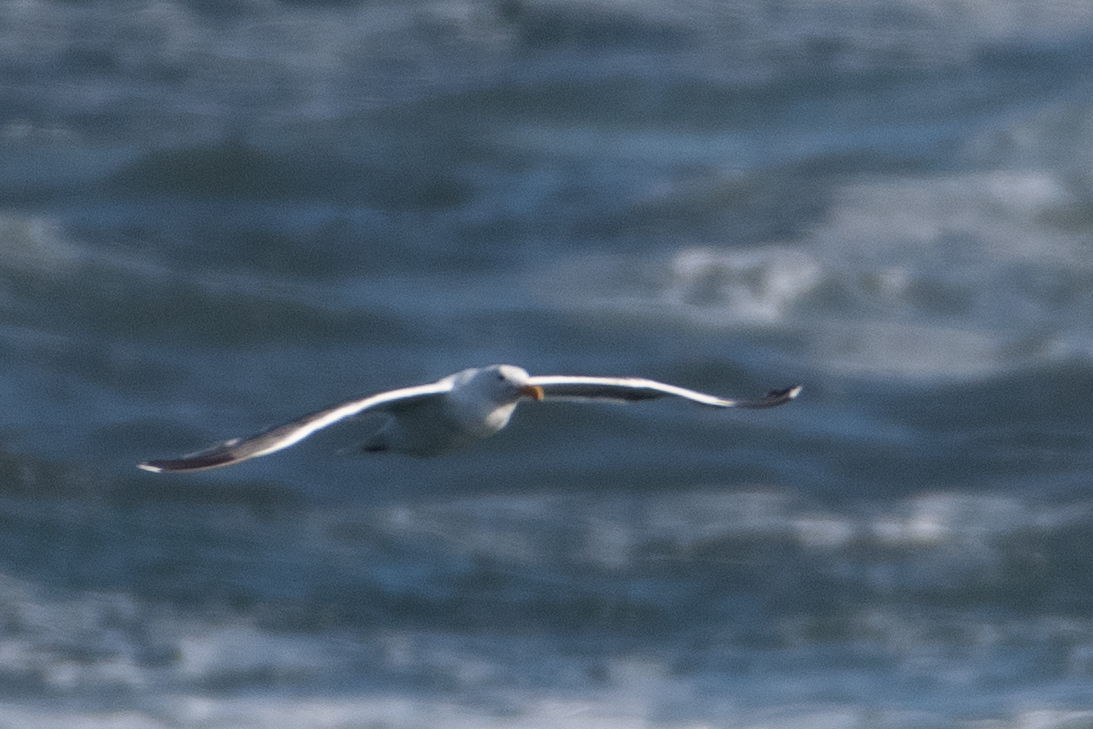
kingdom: Animalia
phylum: Chordata
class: Aves
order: Charadriiformes
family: Laridae
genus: Larus
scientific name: Larus occidentalis
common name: Western gull
